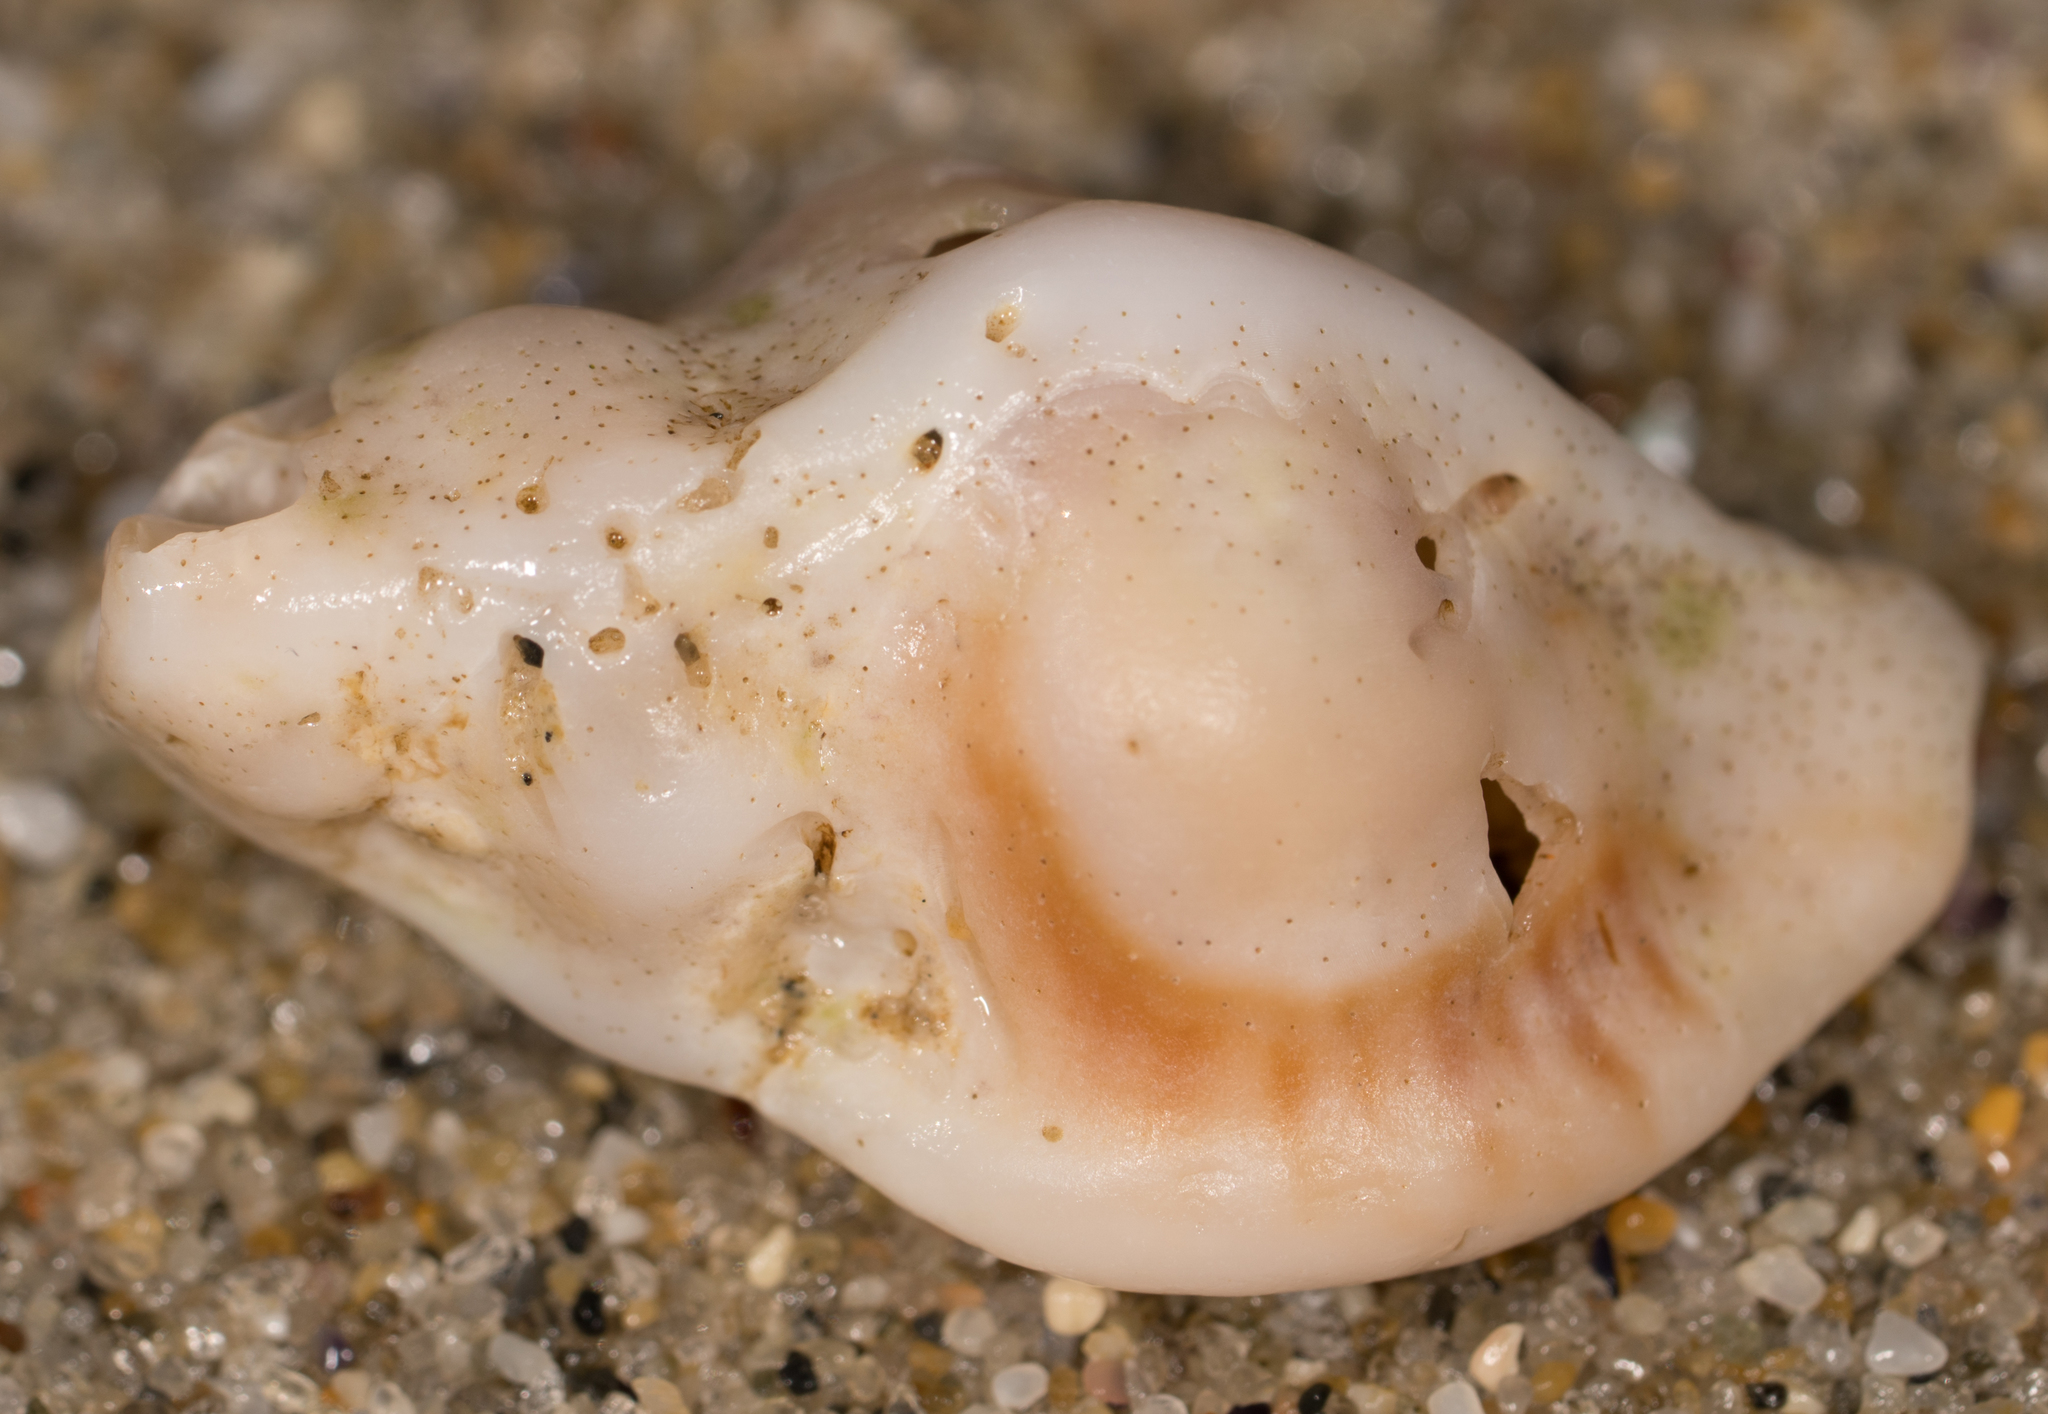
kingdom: Animalia
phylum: Mollusca
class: Gastropoda
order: Neogastropoda
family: Muricidae
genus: Ceratostoma
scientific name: Ceratostoma nuttalli
